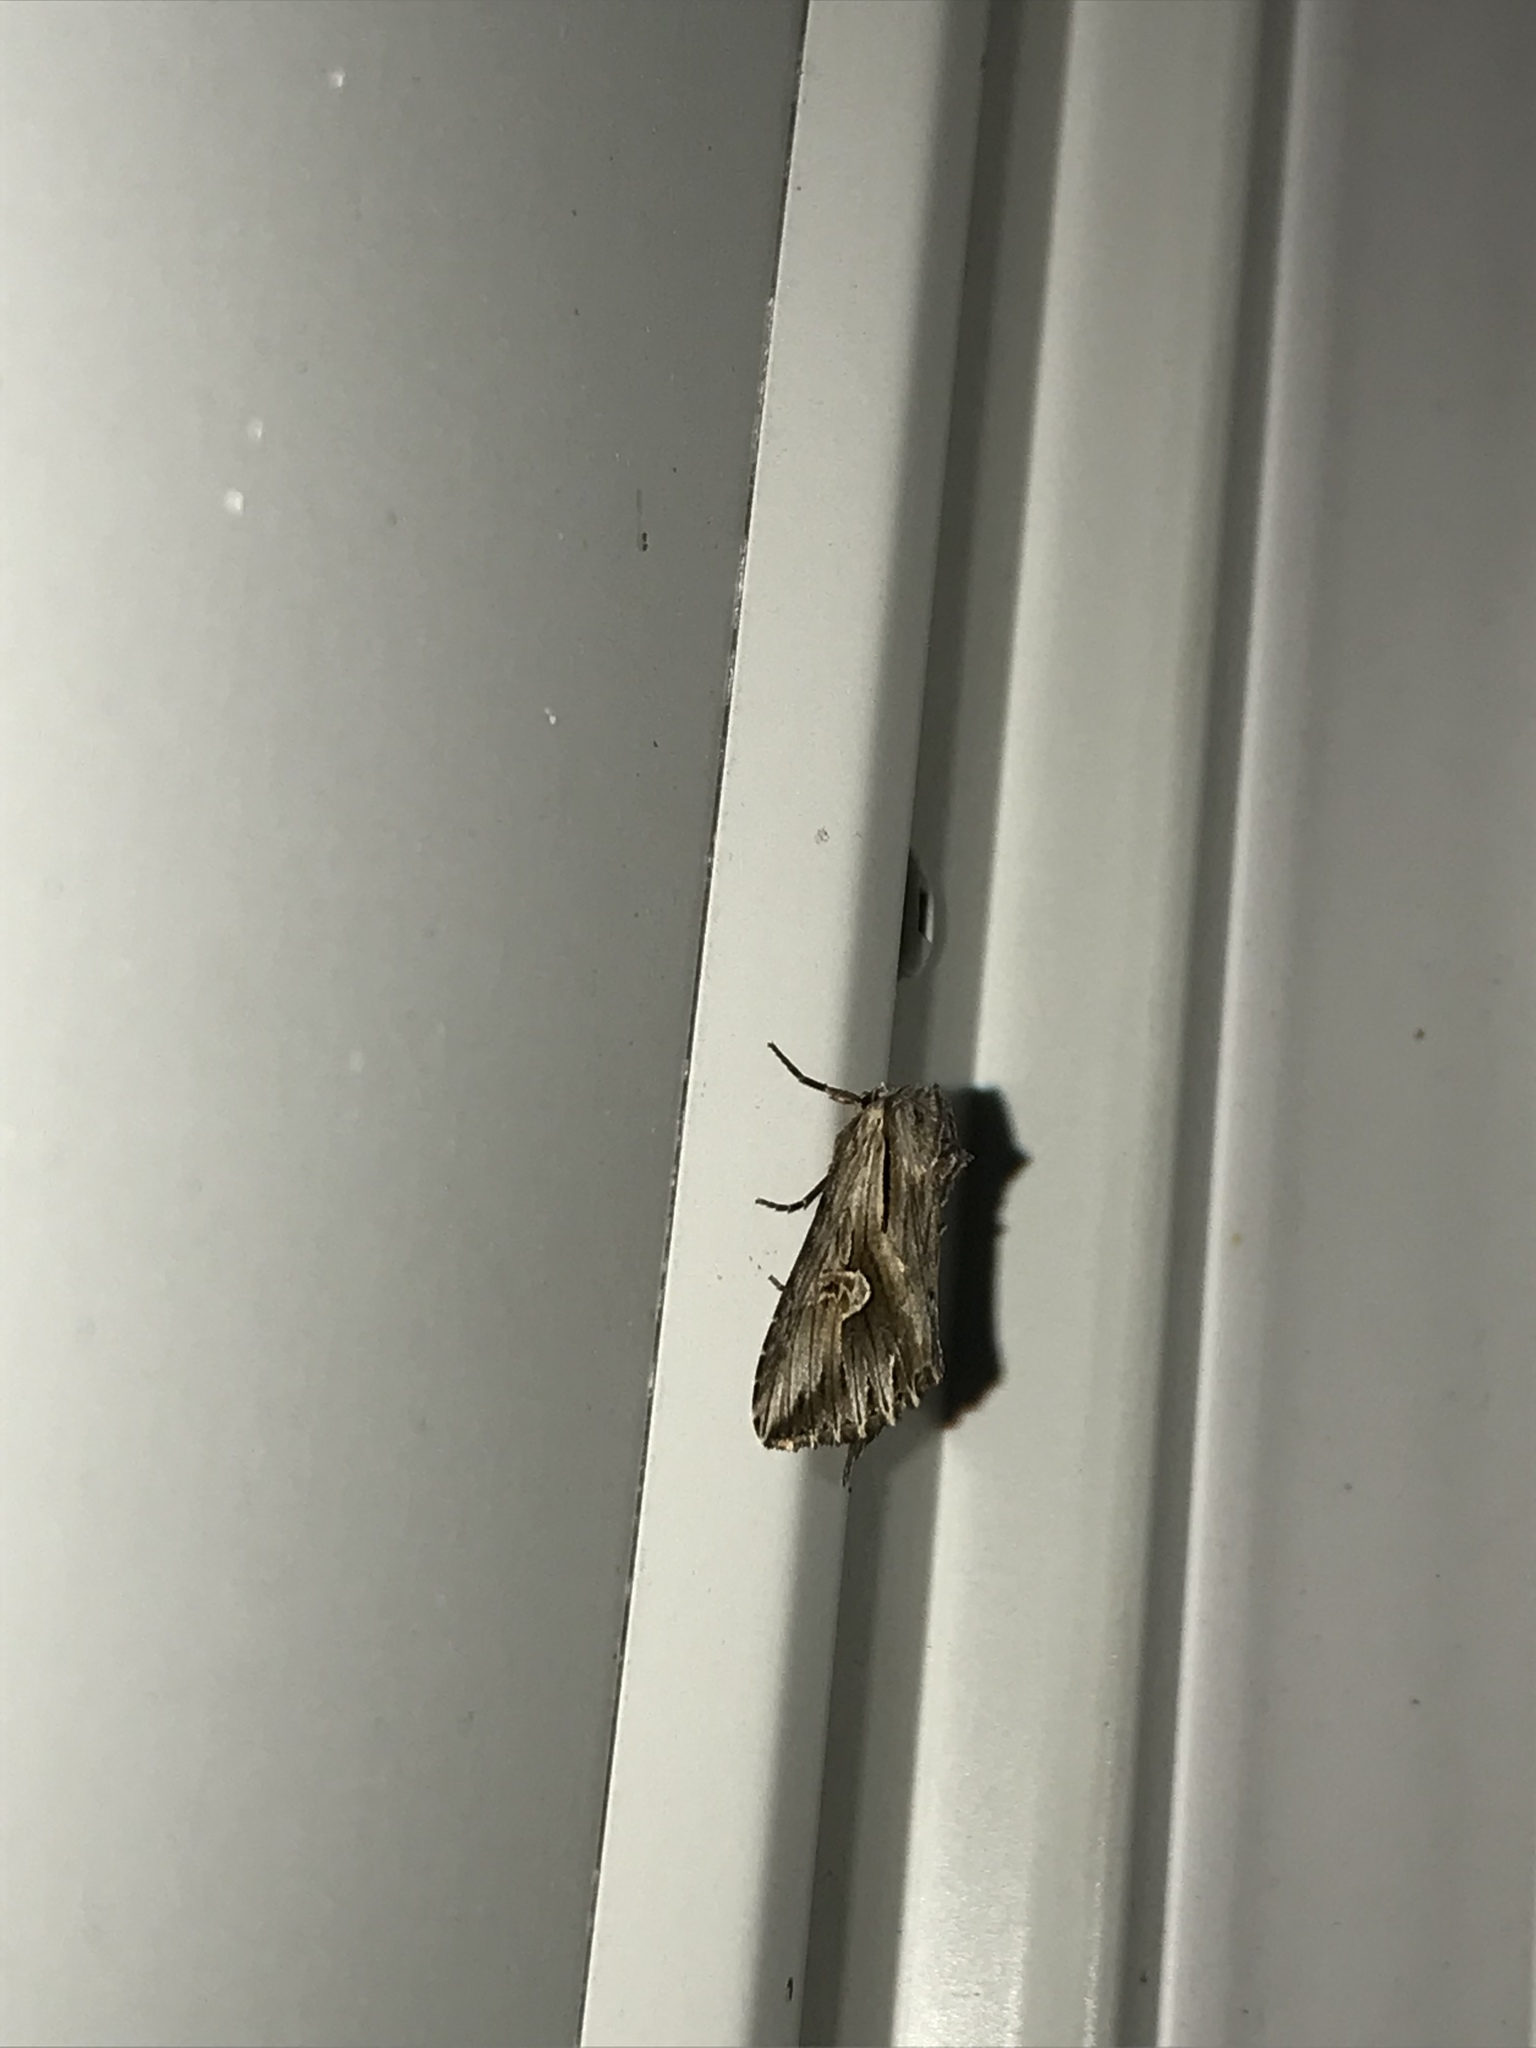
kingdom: Animalia
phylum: Arthropoda
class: Insecta
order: Lepidoptera
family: Noctuidae
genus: Nedra
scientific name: Nedra ramosula
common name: Gray half-spot
